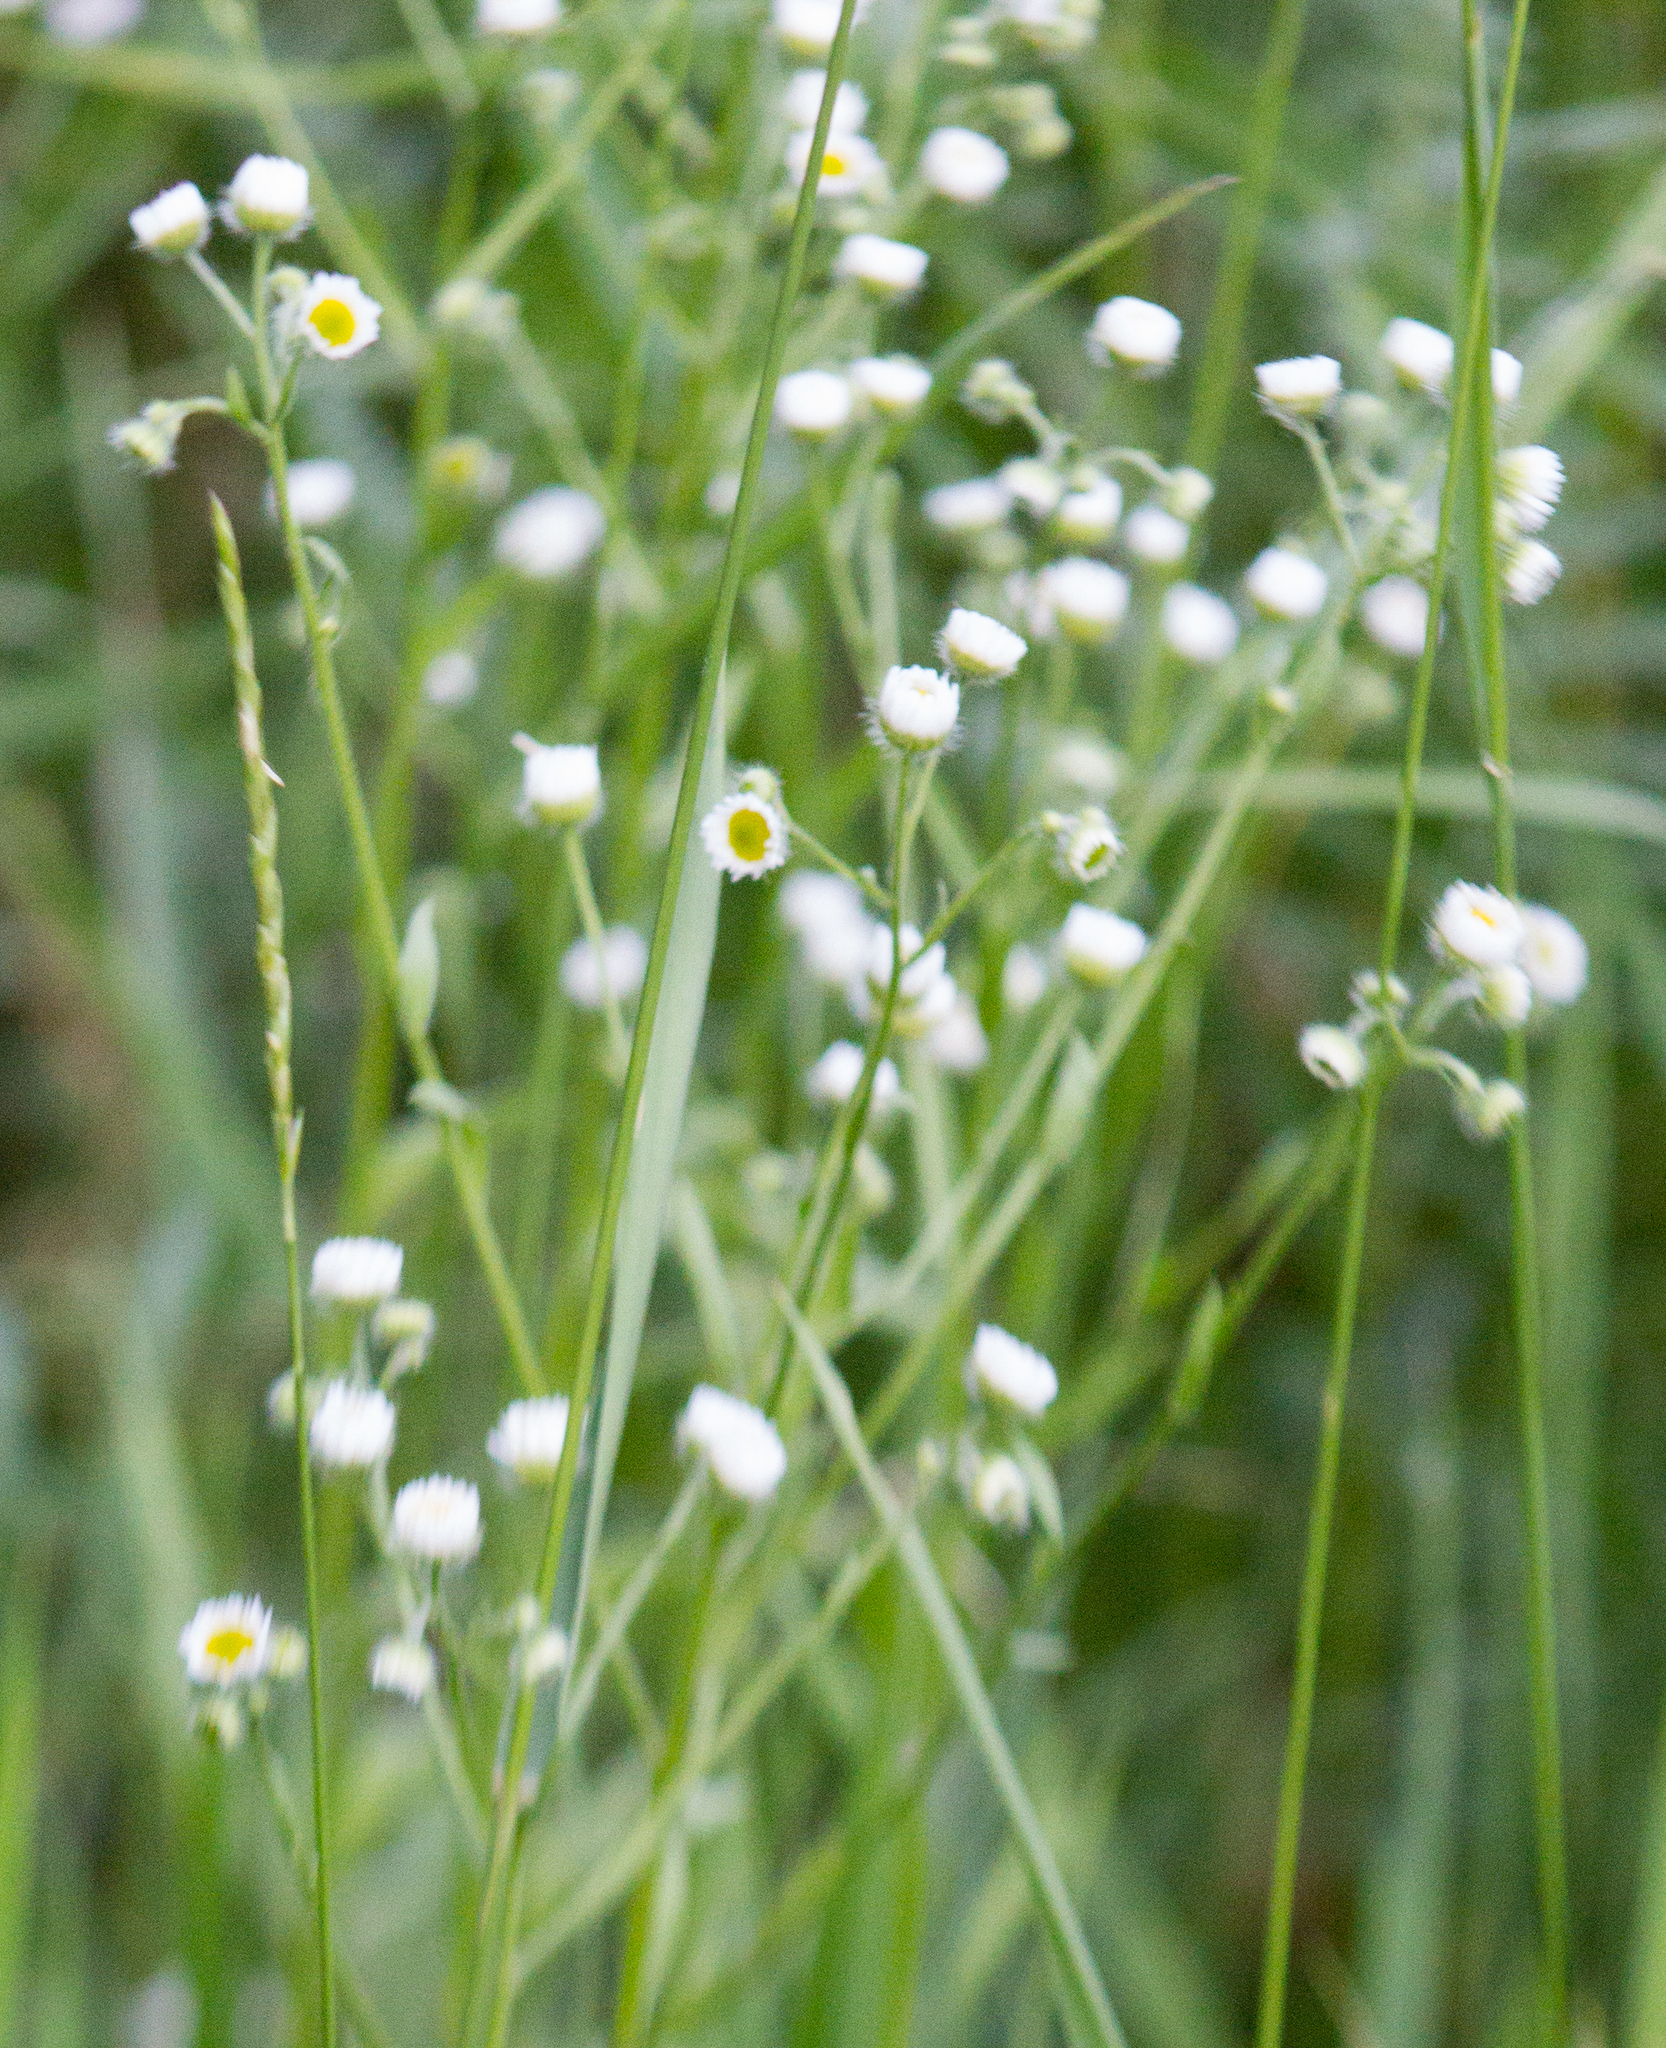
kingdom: Plantae
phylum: Tracheophyta
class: Magnoliopsida
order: Asterales
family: Asteraceae
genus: Erigeron
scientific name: Erigeron annuus
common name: Tall fleabane
